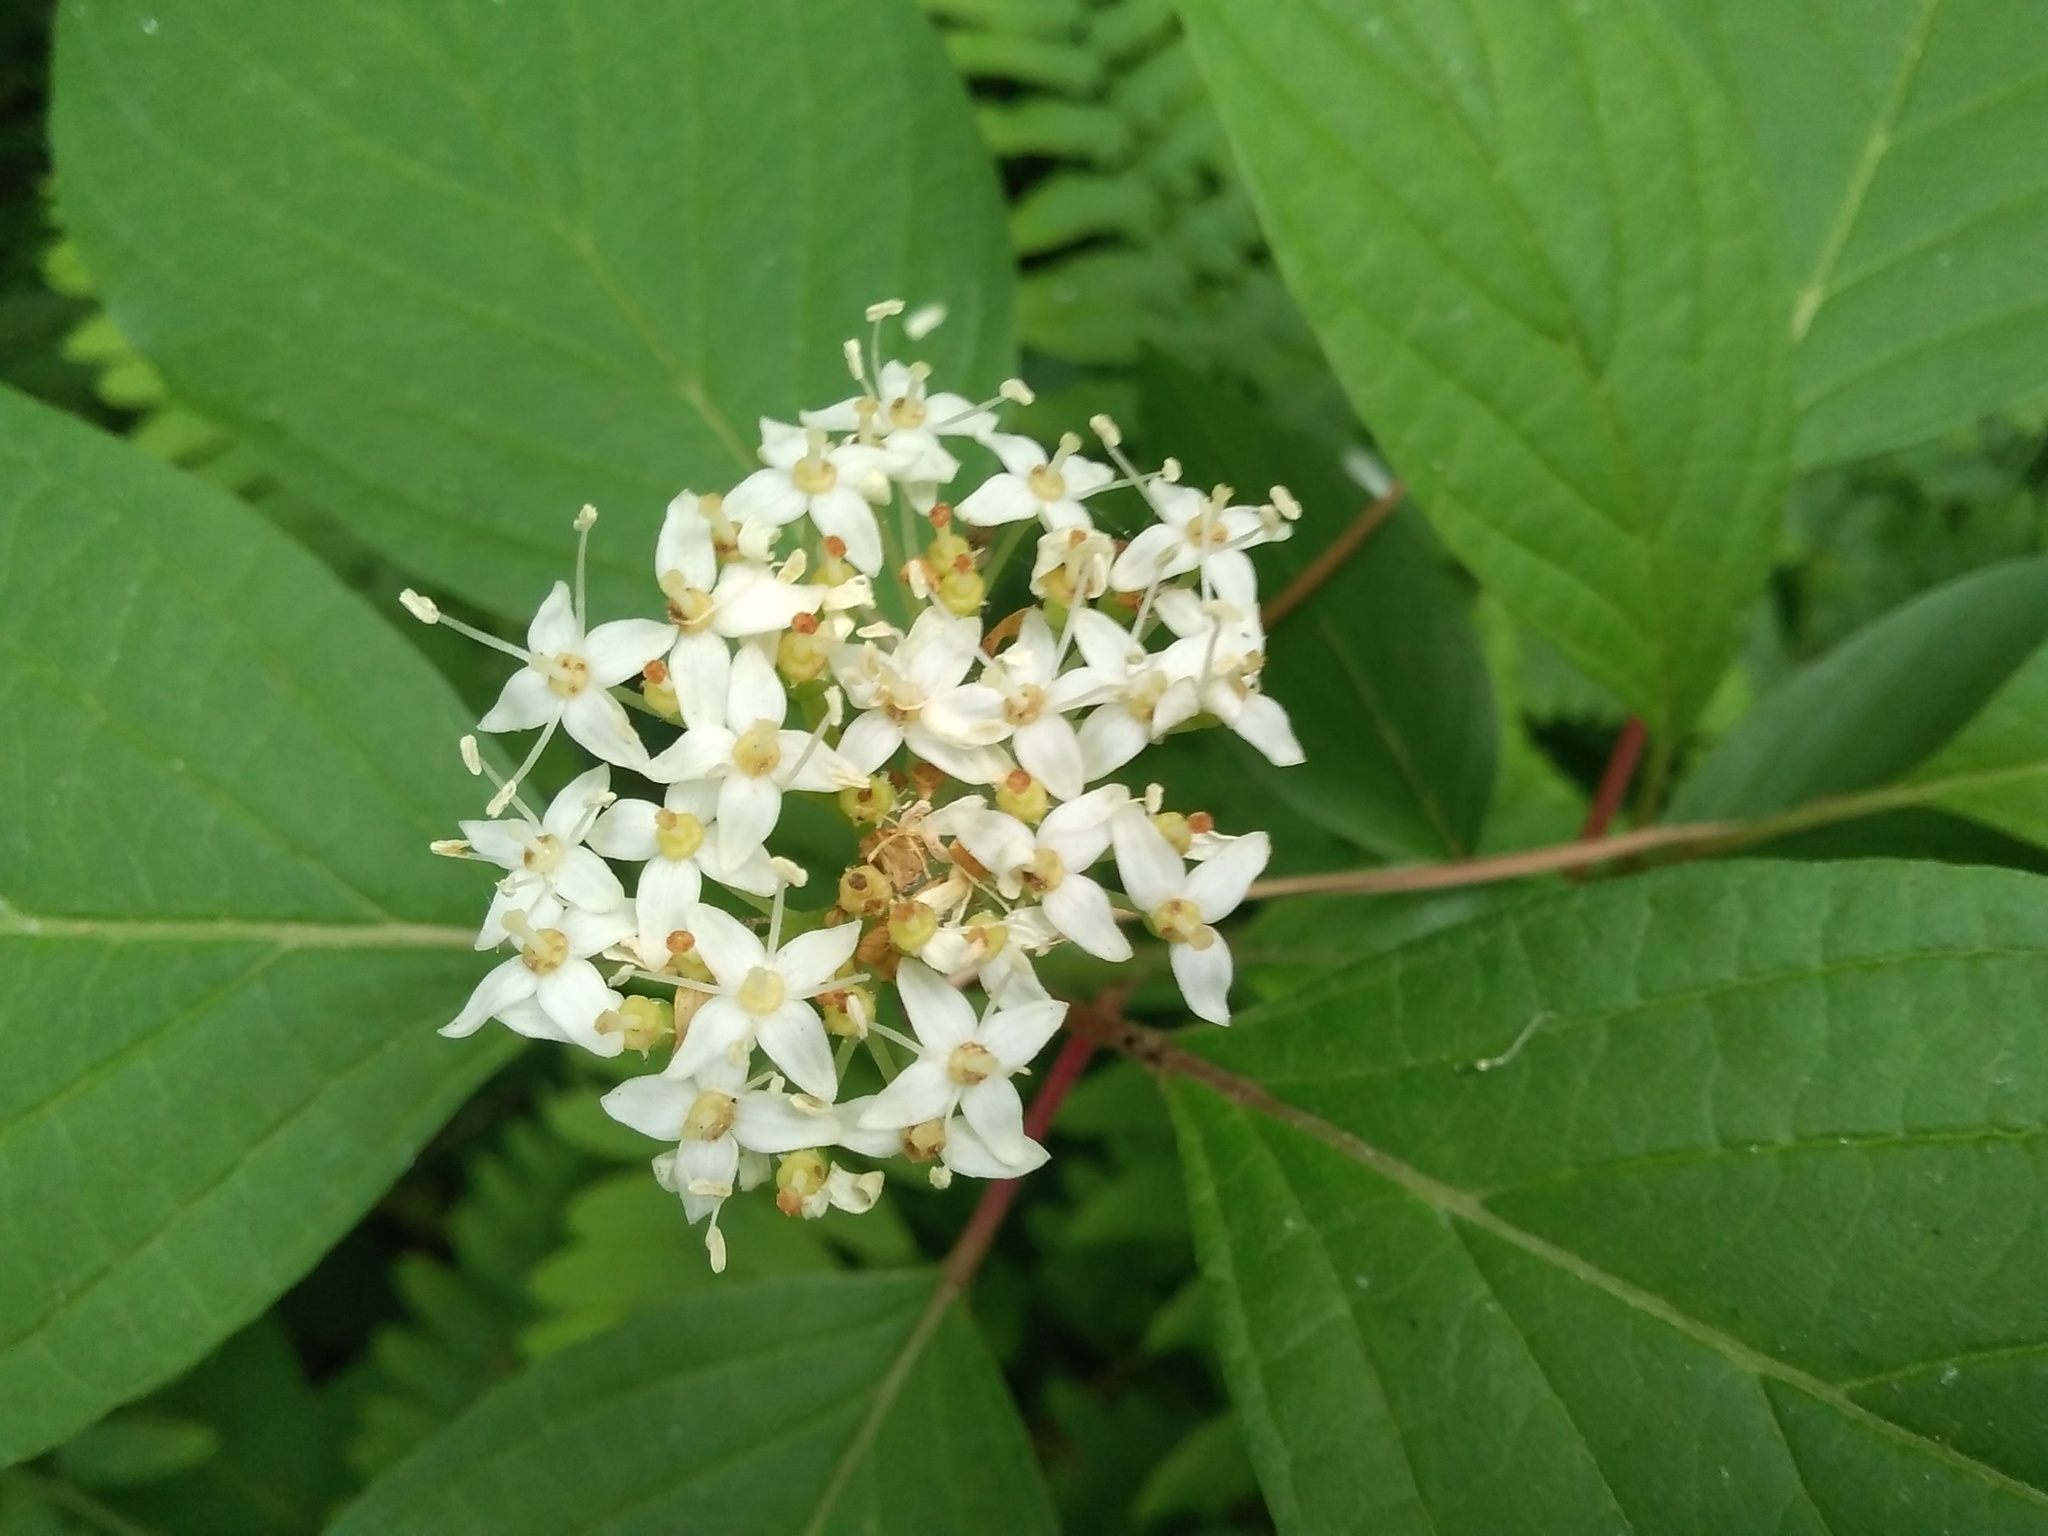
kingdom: Plantae
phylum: Tracheophyta
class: Magnoliopsida
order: Cornales
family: Cornaceae
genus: Cornus
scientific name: Cornus alba
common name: White dogwood
